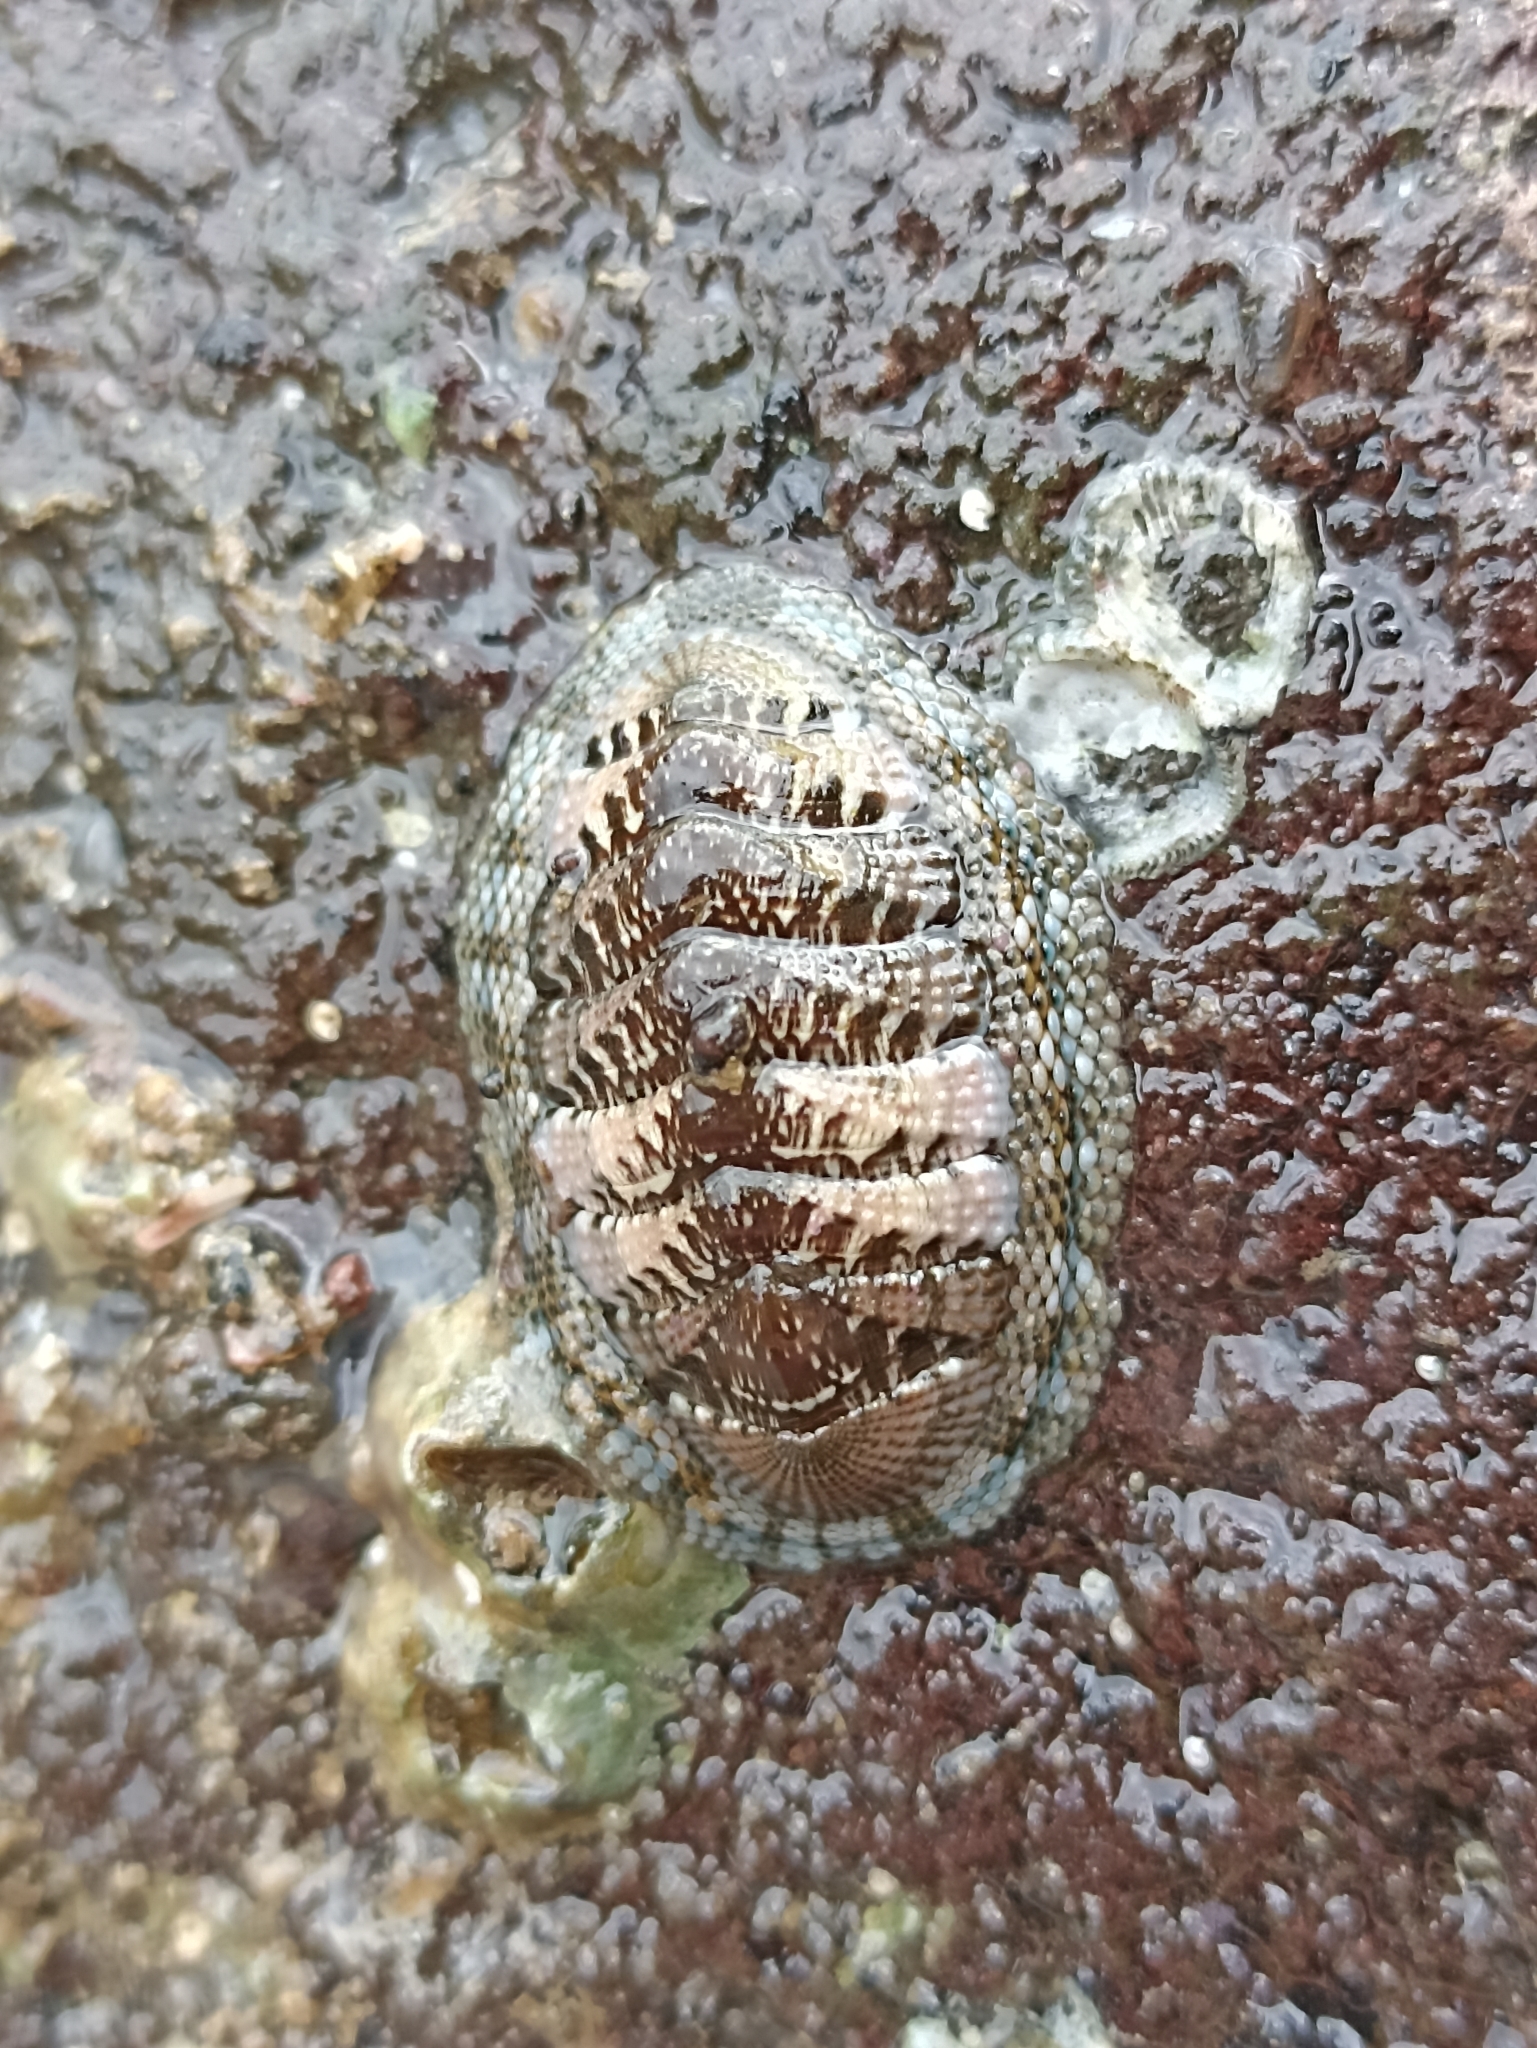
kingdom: Animalia
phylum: Mollusca
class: Polyplacophora
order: Chitonida
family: Chitonidae
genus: Sypharochiton
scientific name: Sypharochiton pelliserpentis
